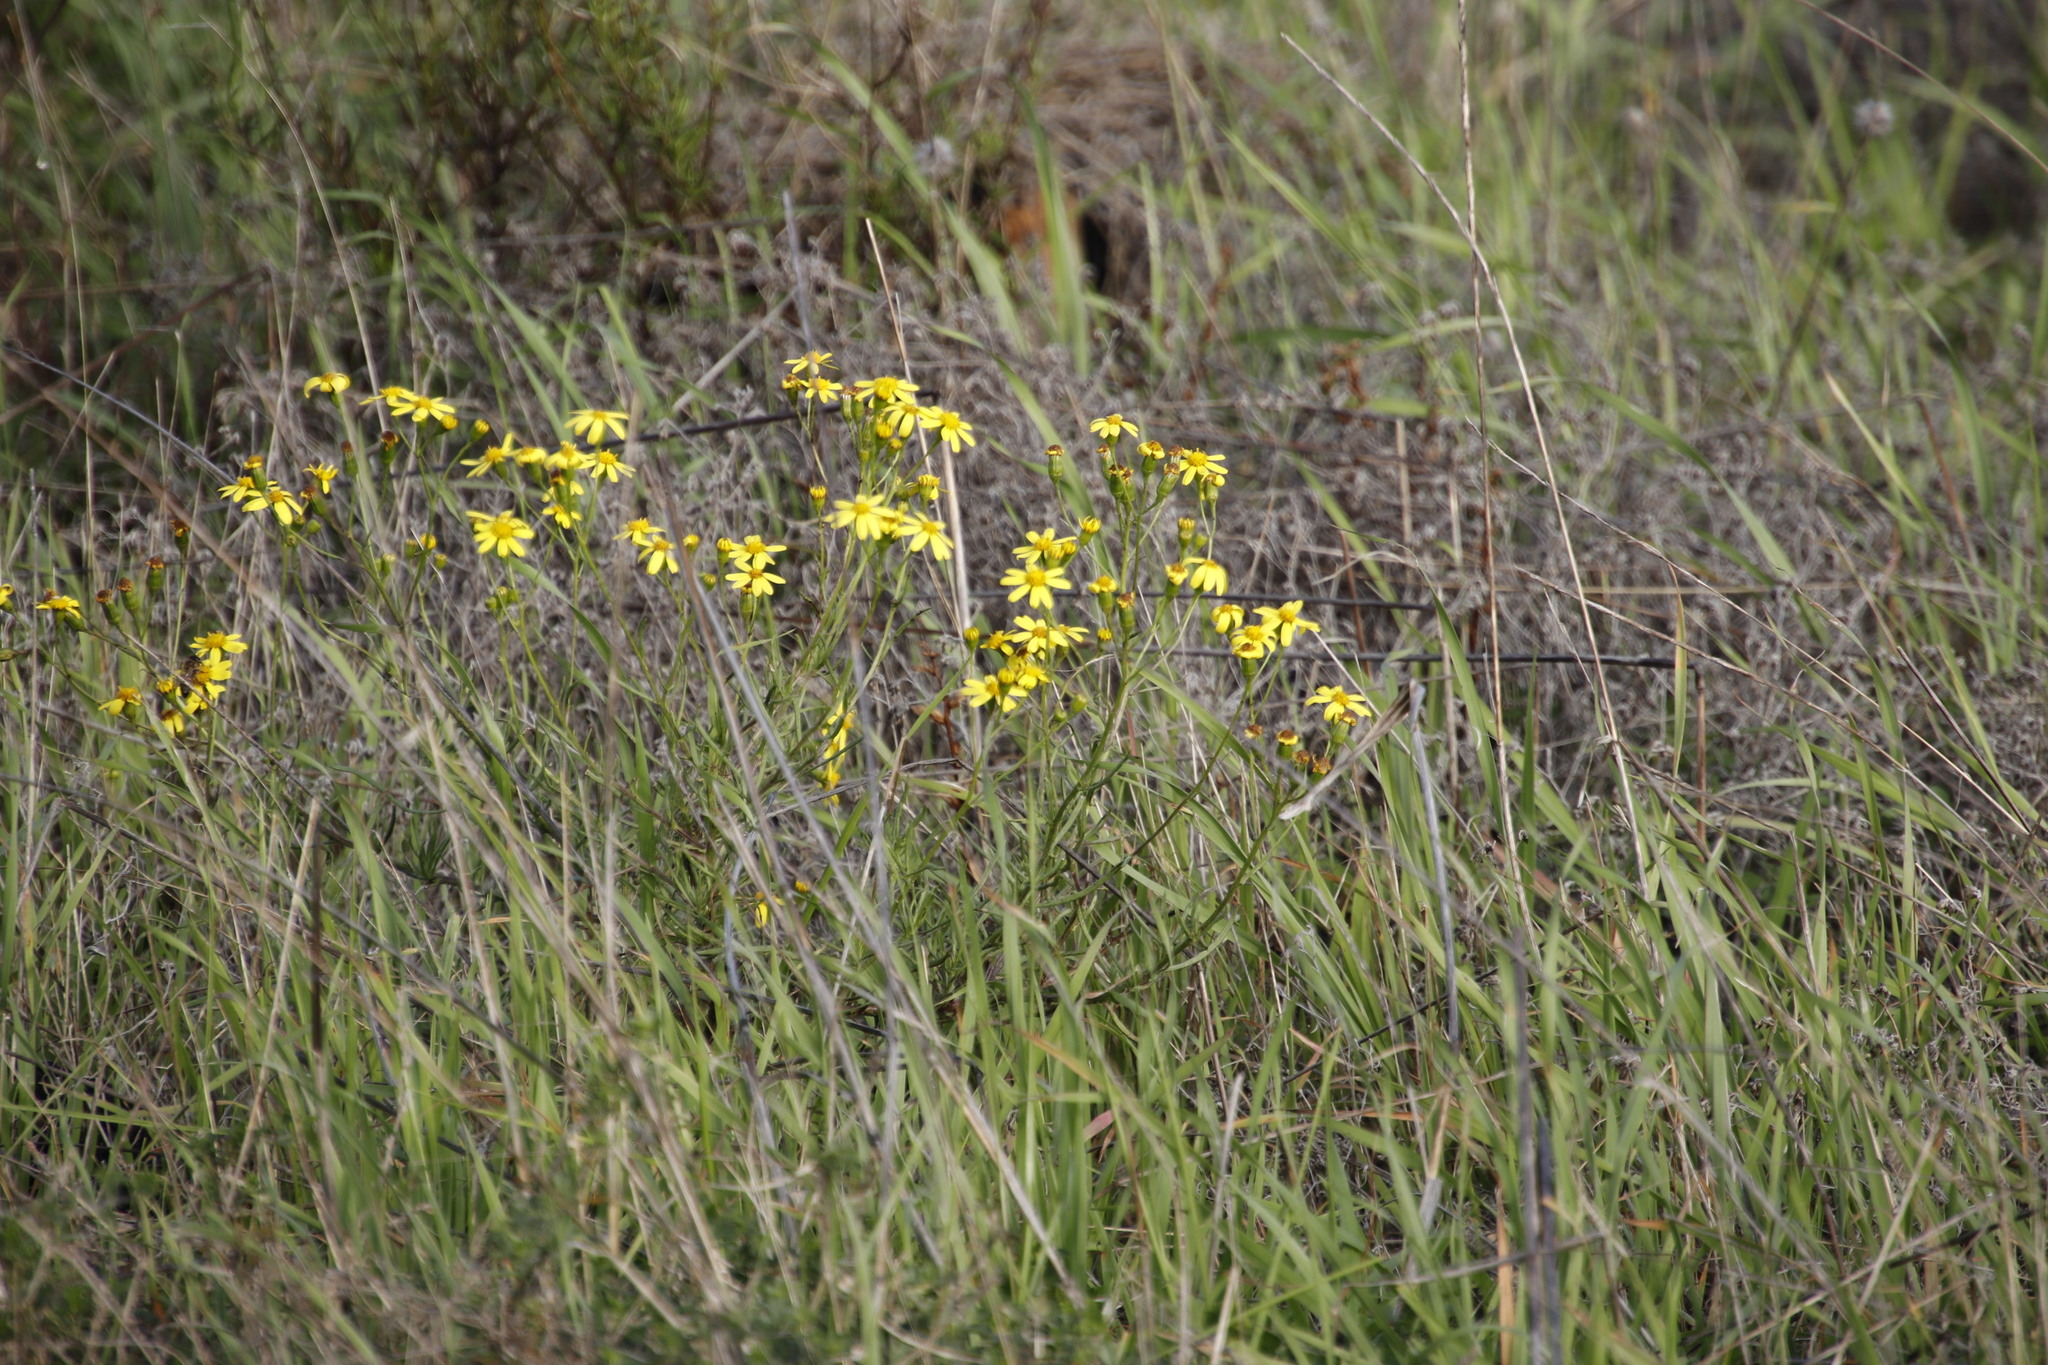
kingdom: Plantae
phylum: Tracheophyta
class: Magnoliopsida
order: Asterales
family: Asteraceae
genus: Senecio
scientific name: Senecio burchellii
